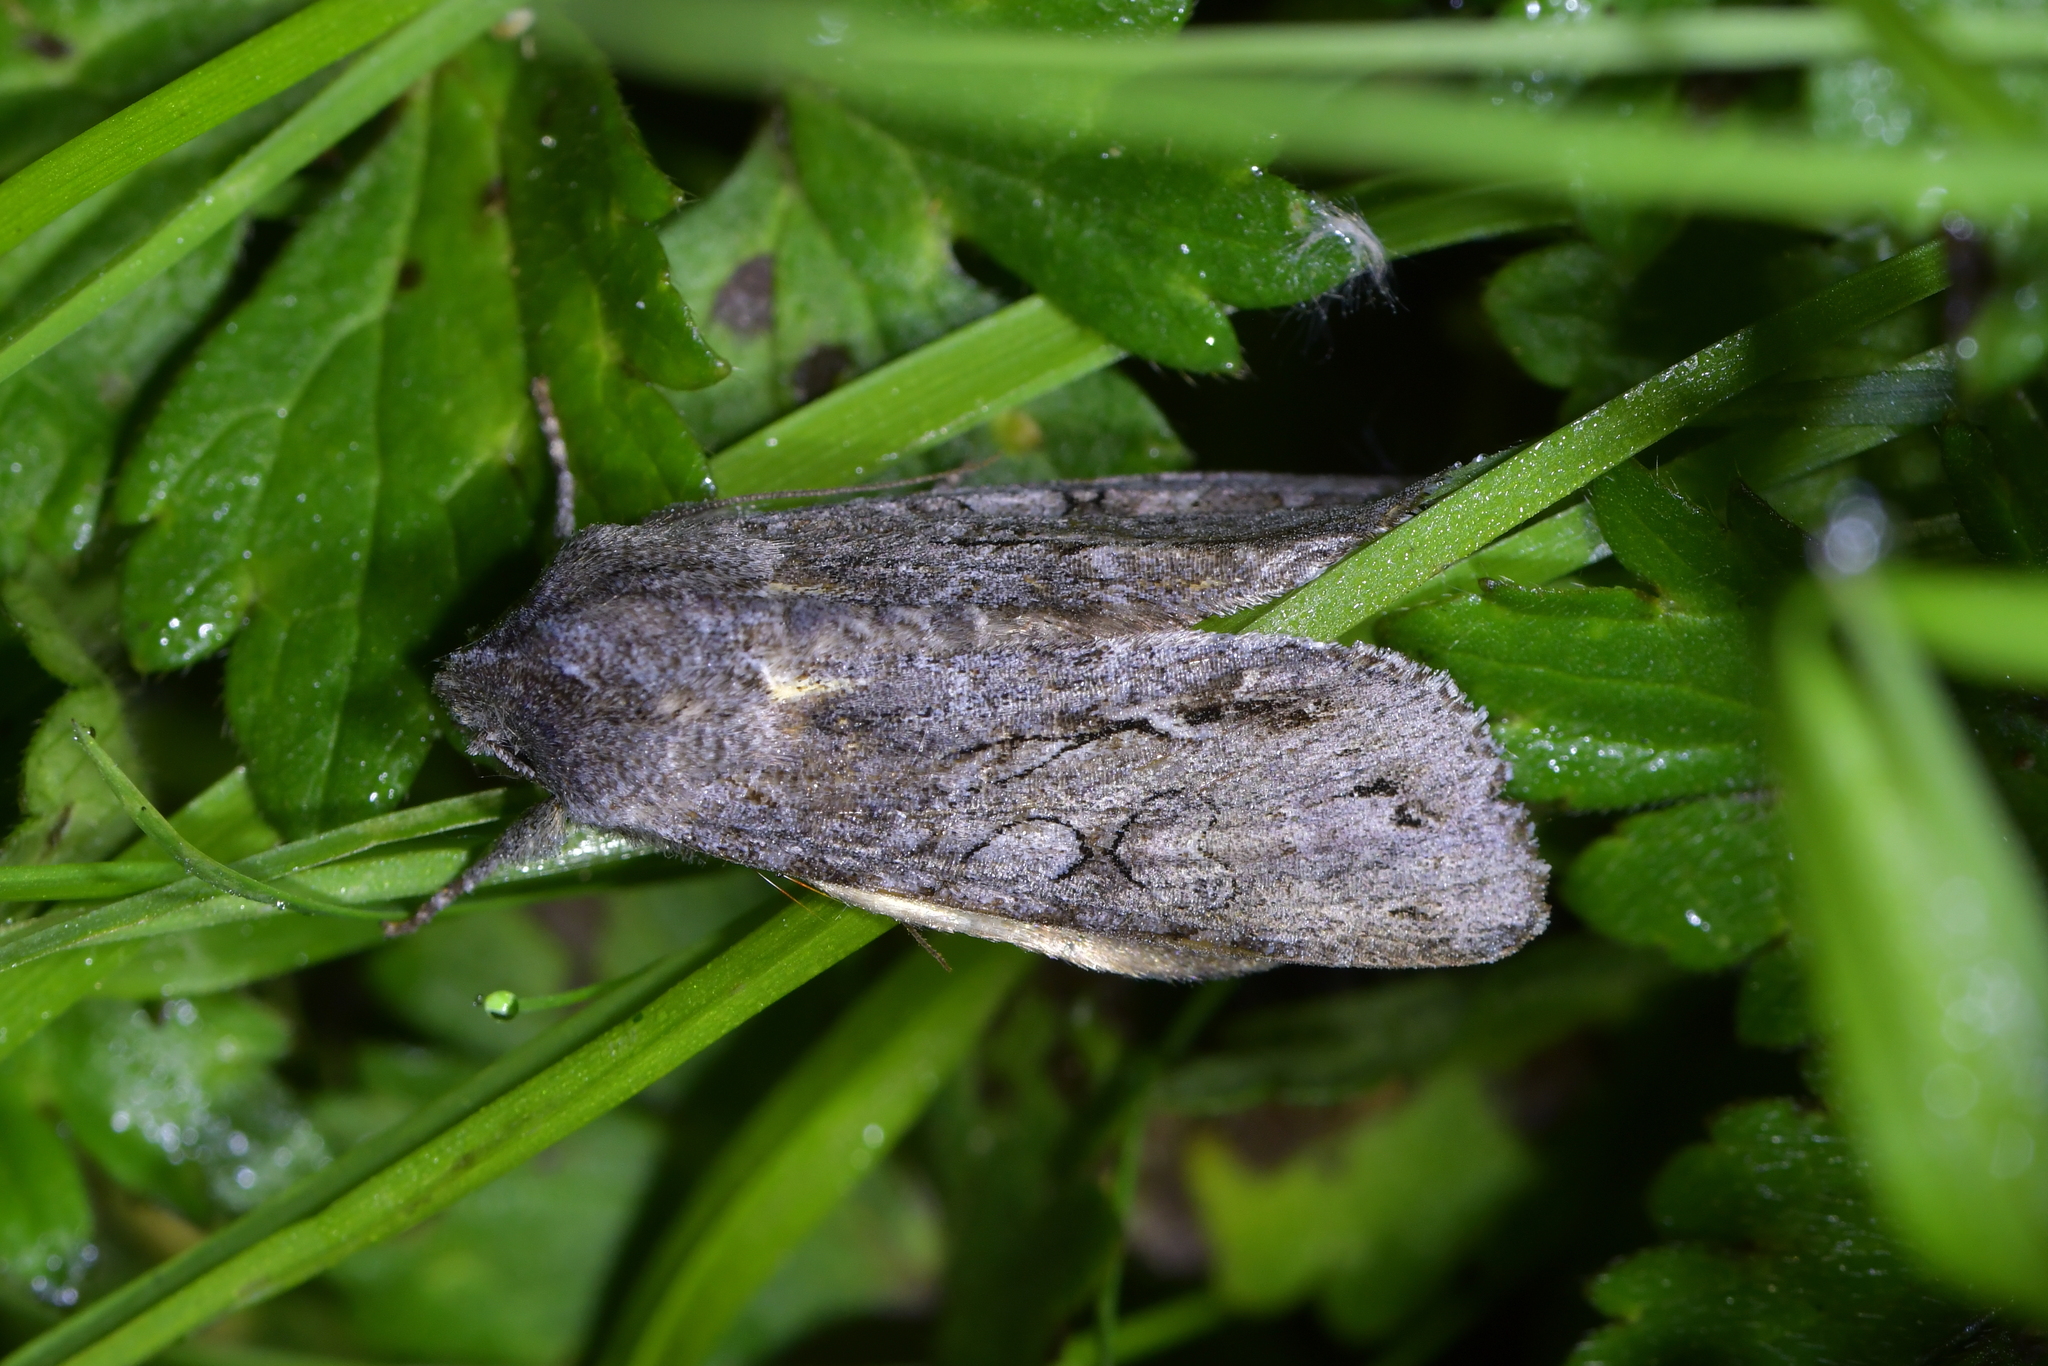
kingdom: Animalia
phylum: Arthropoda
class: Insecta
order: Lepidoptera
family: Noctuidae
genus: Ichneutica
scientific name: Ichneutica
